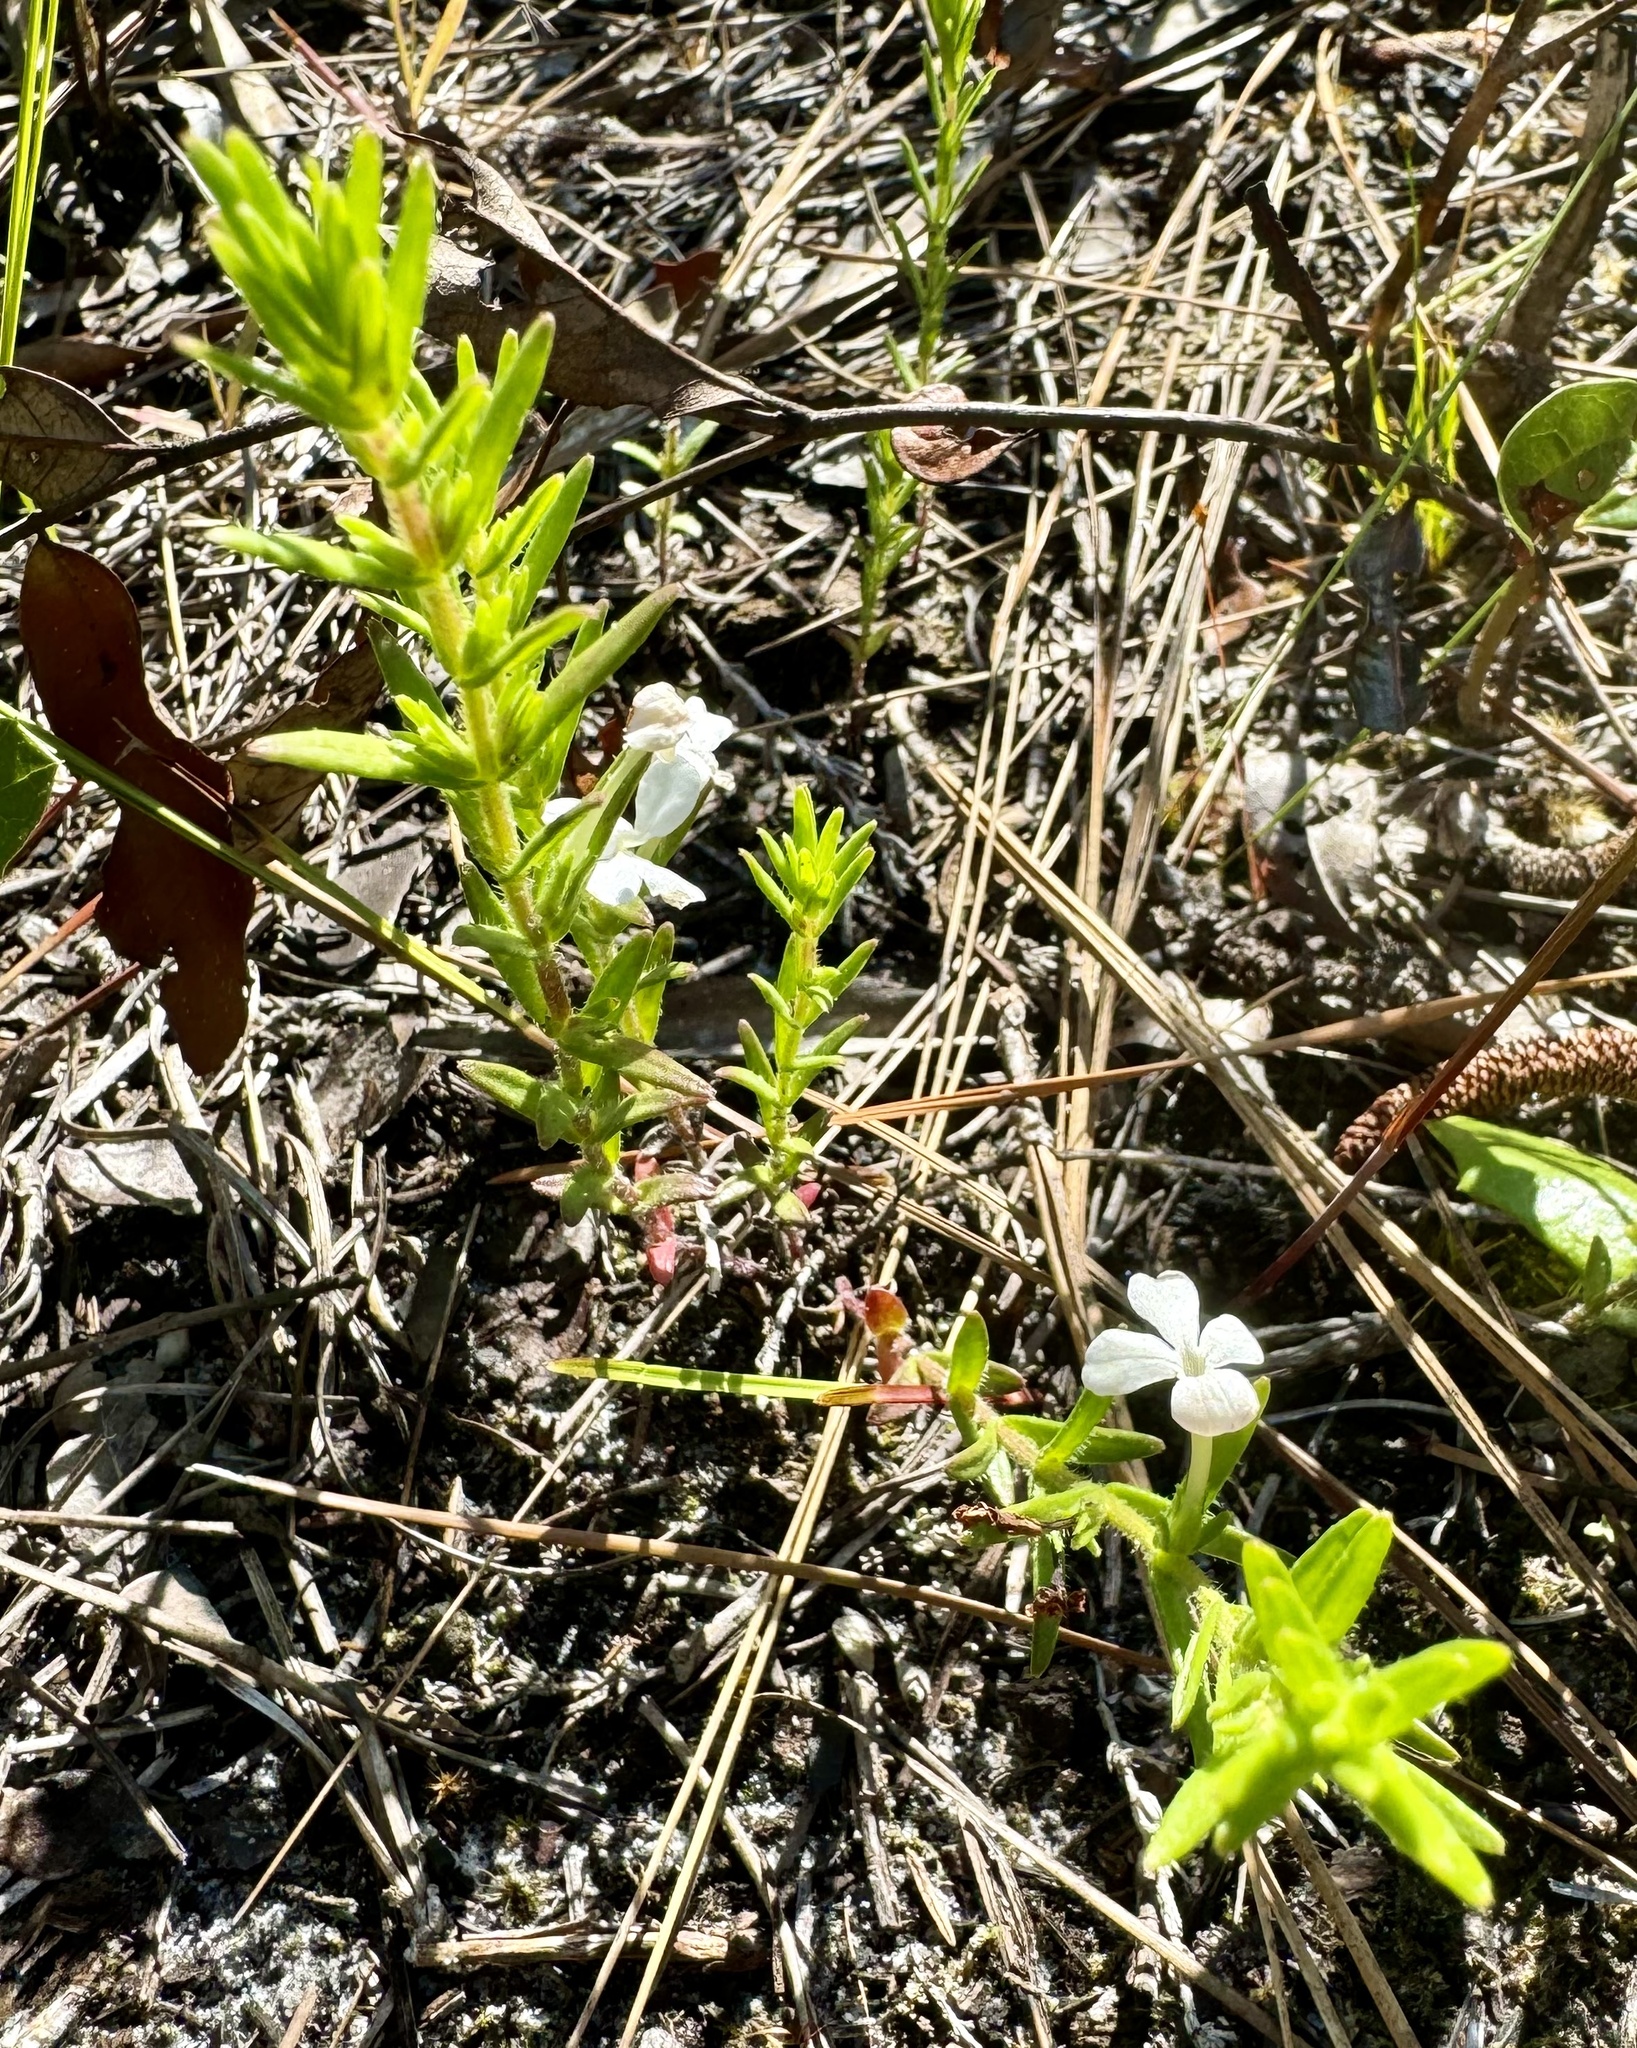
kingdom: Plantae
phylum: Tracheophyta
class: Magnoliopsida
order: Lamiales
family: Plantaginaceae
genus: Gratiola
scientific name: Gratiola hispida
